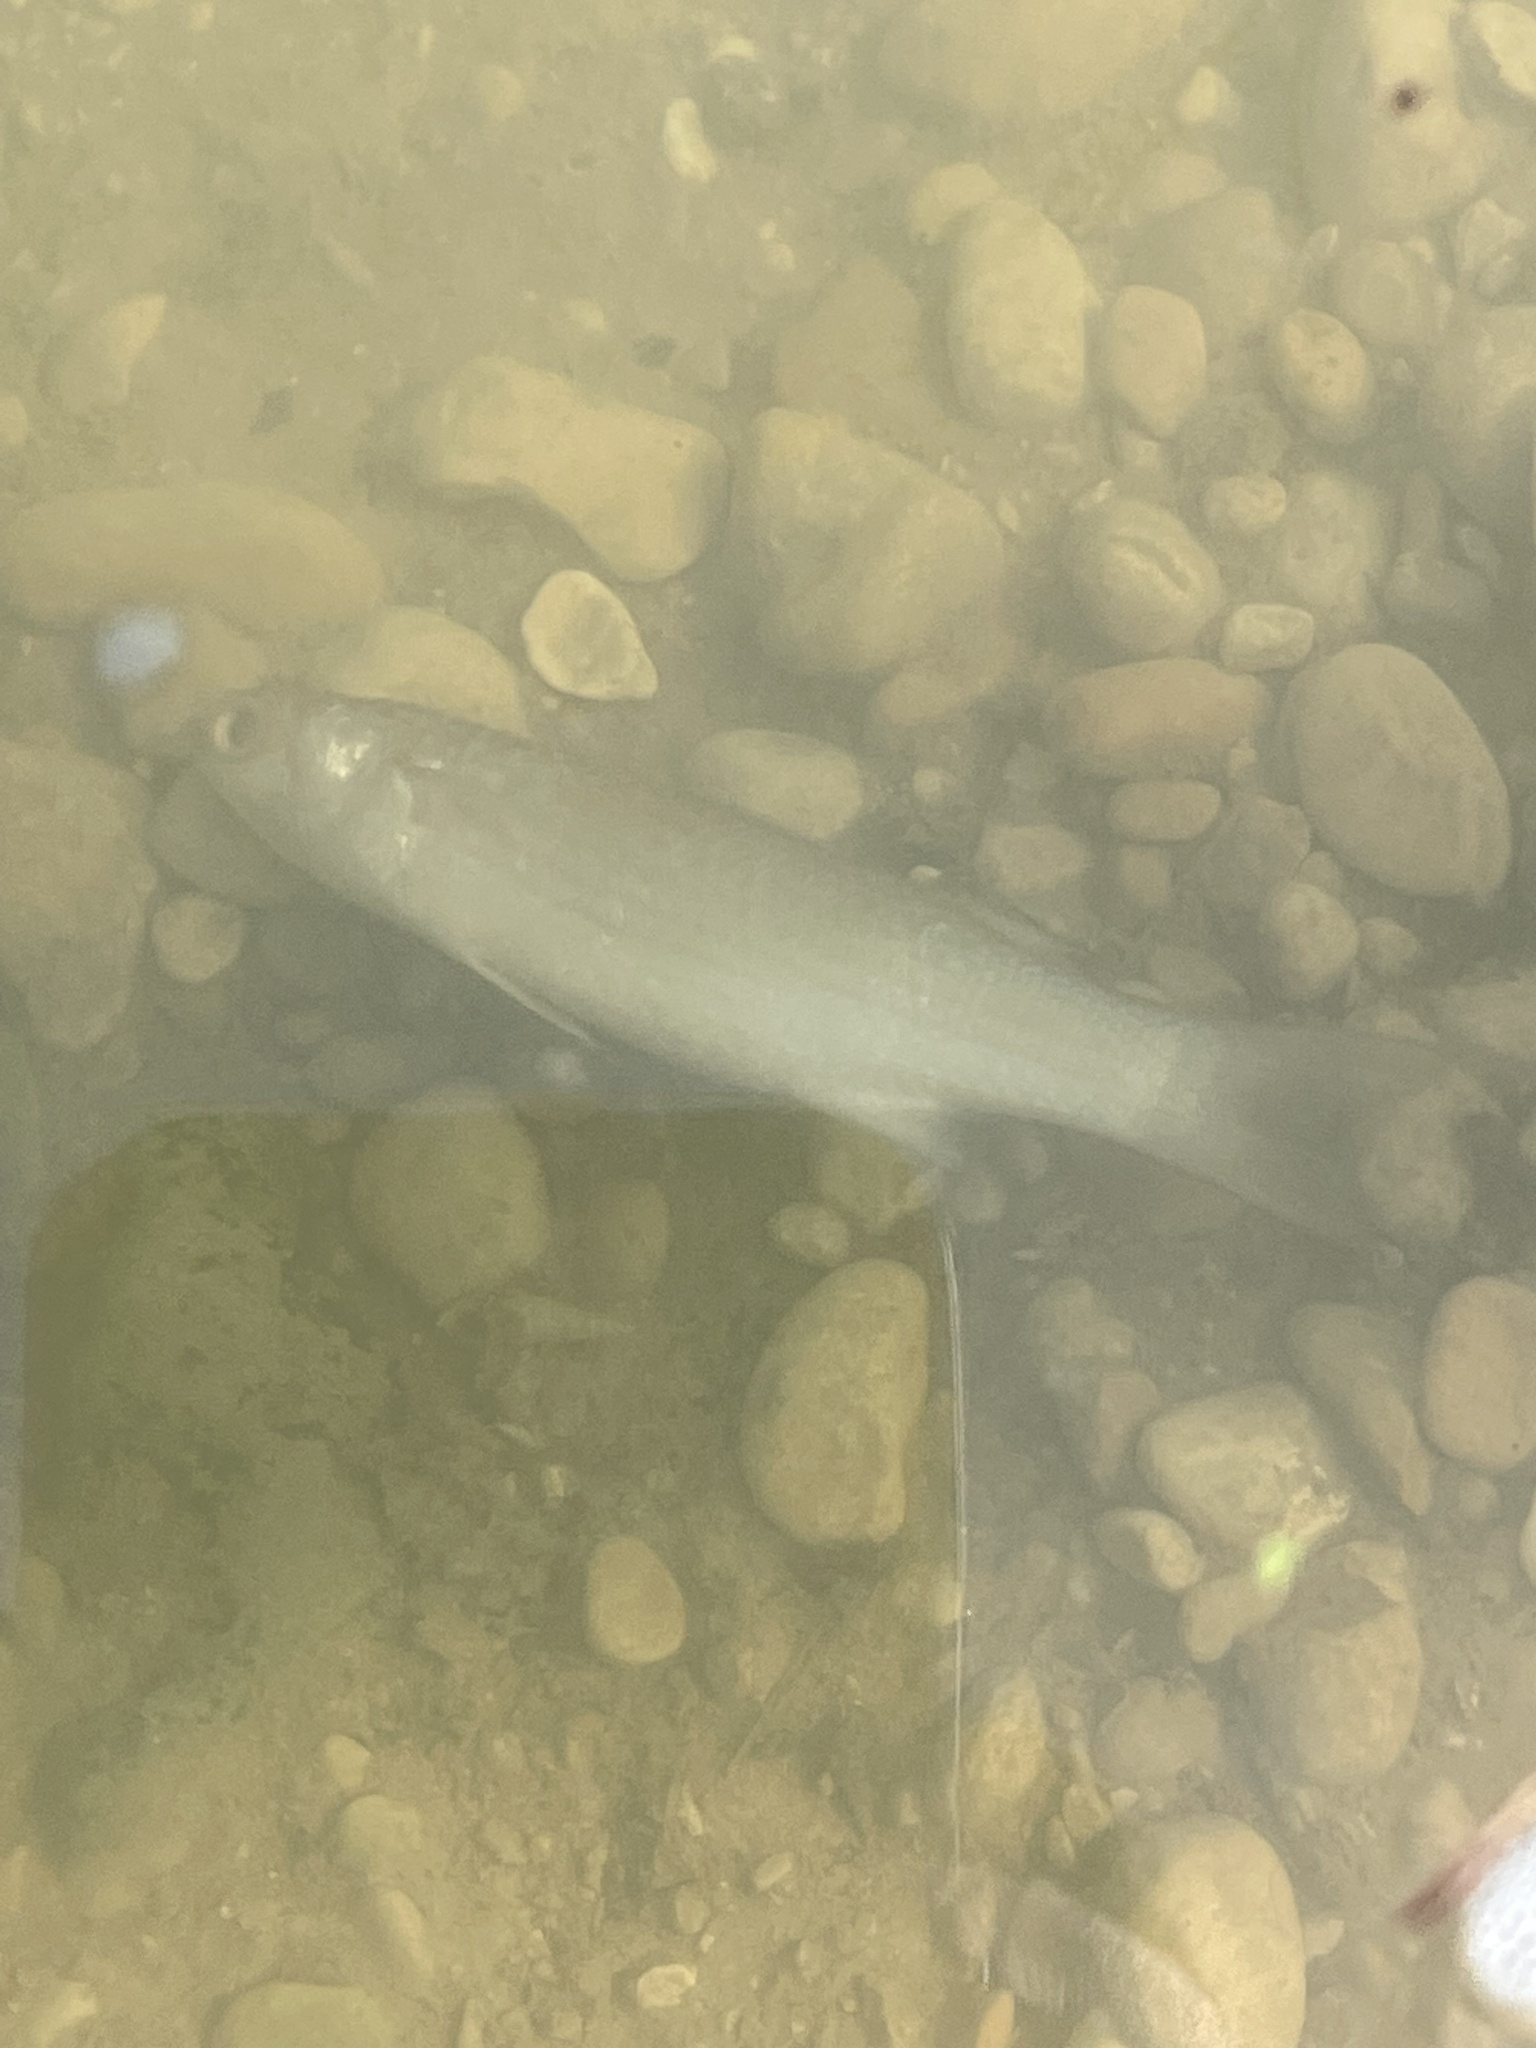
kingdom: Animalia
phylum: Chordata
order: Mugiliformes
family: Mugilidae
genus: Mugil
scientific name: Mugil cephalus
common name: Grey mullet
